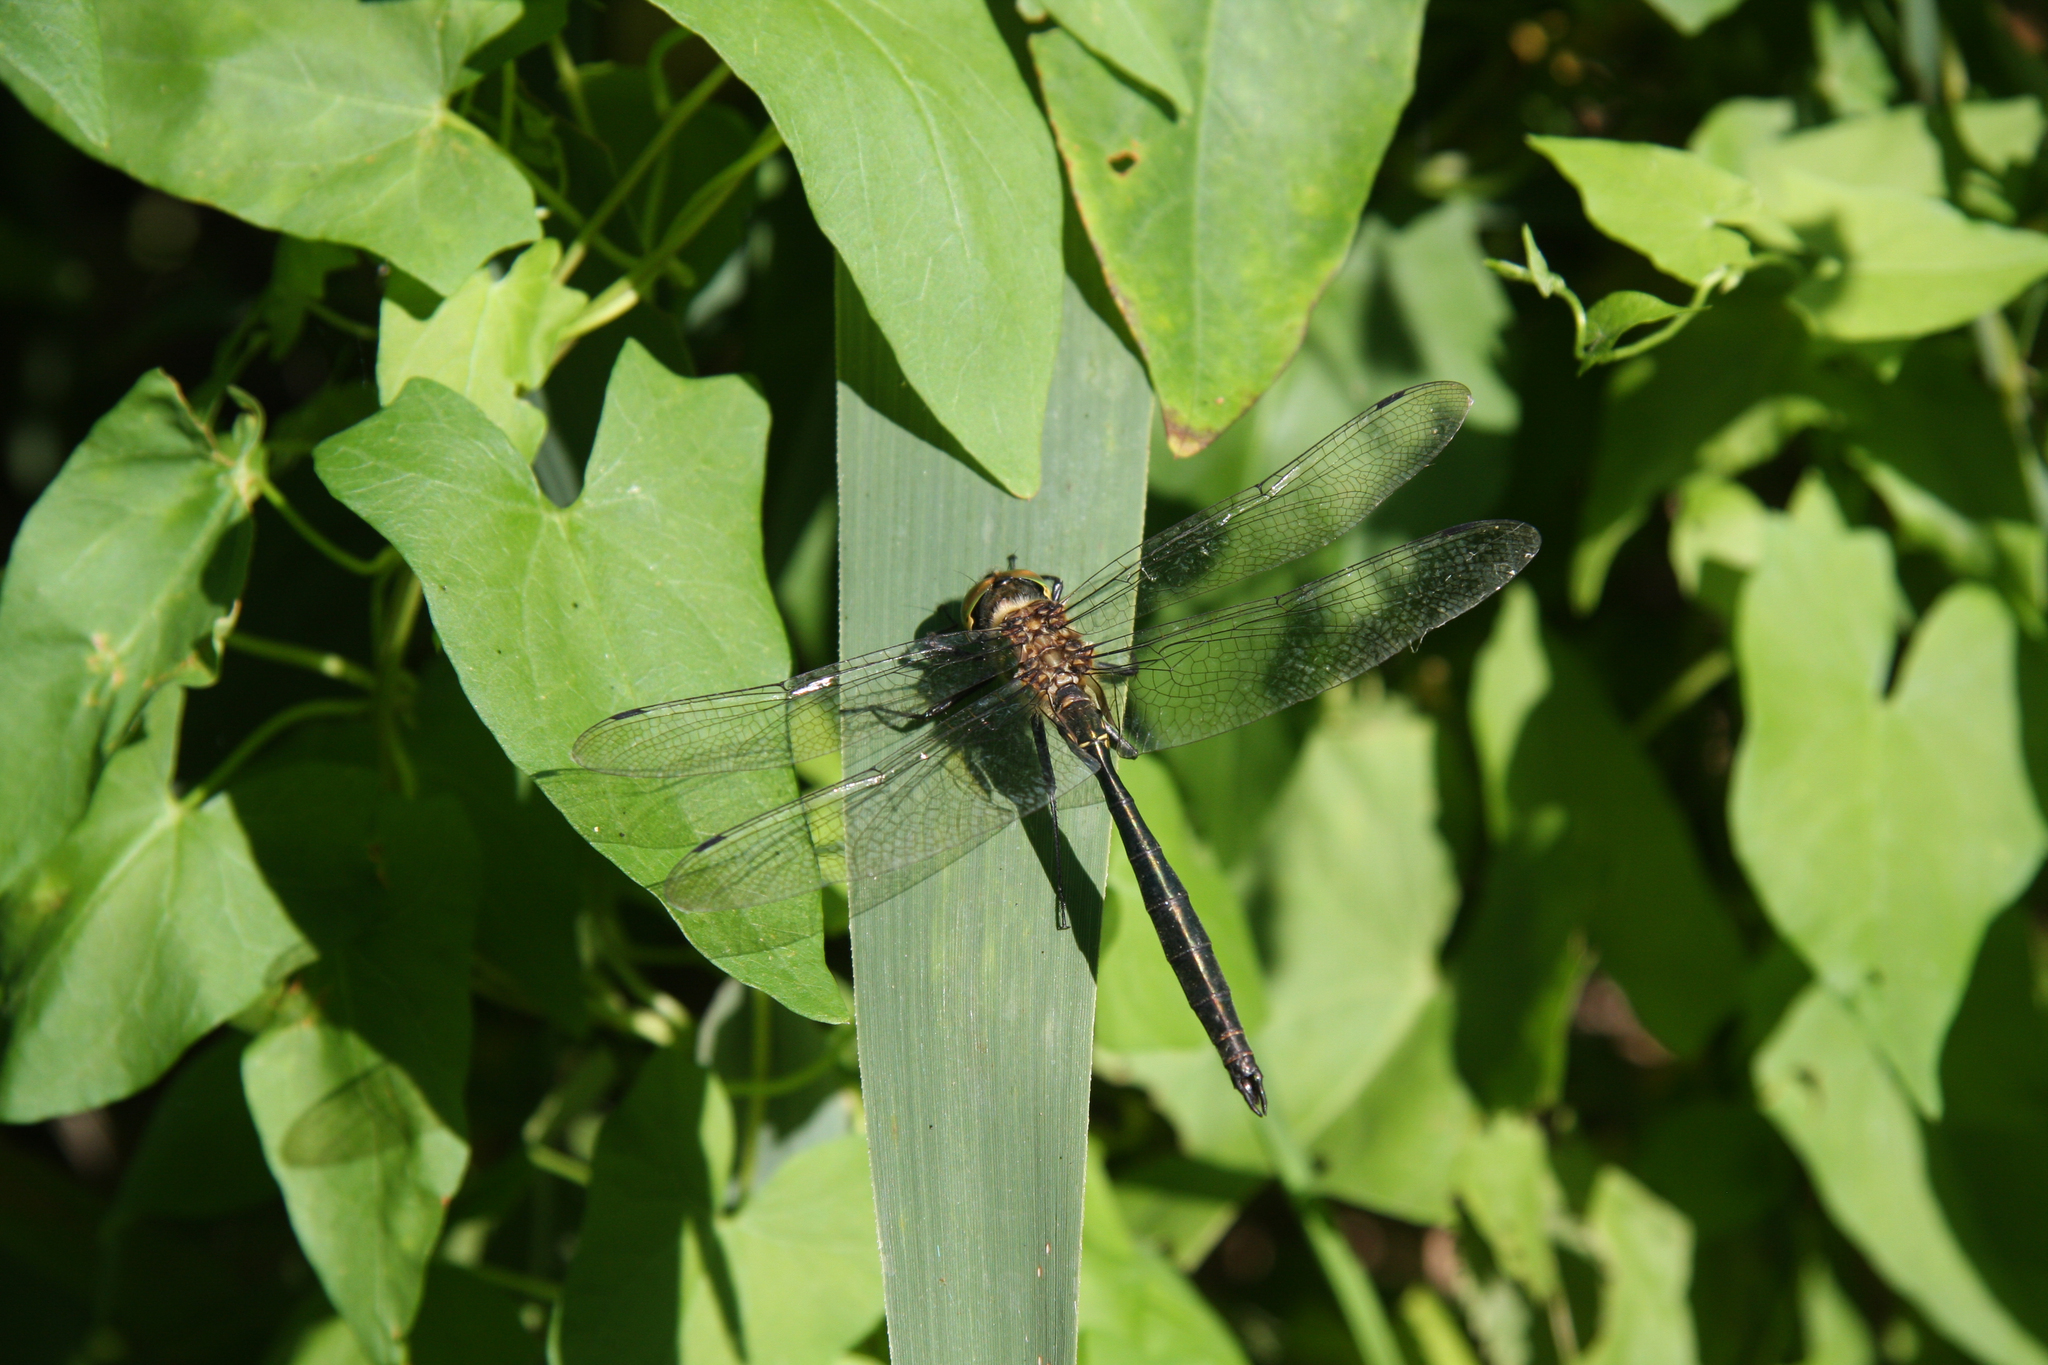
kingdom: Animalia
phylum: Arthropoda
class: Insecta
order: Odonata
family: Corduliidae
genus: Somatochlora
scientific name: Somatochlora meridionalis
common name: Balkan emerald
